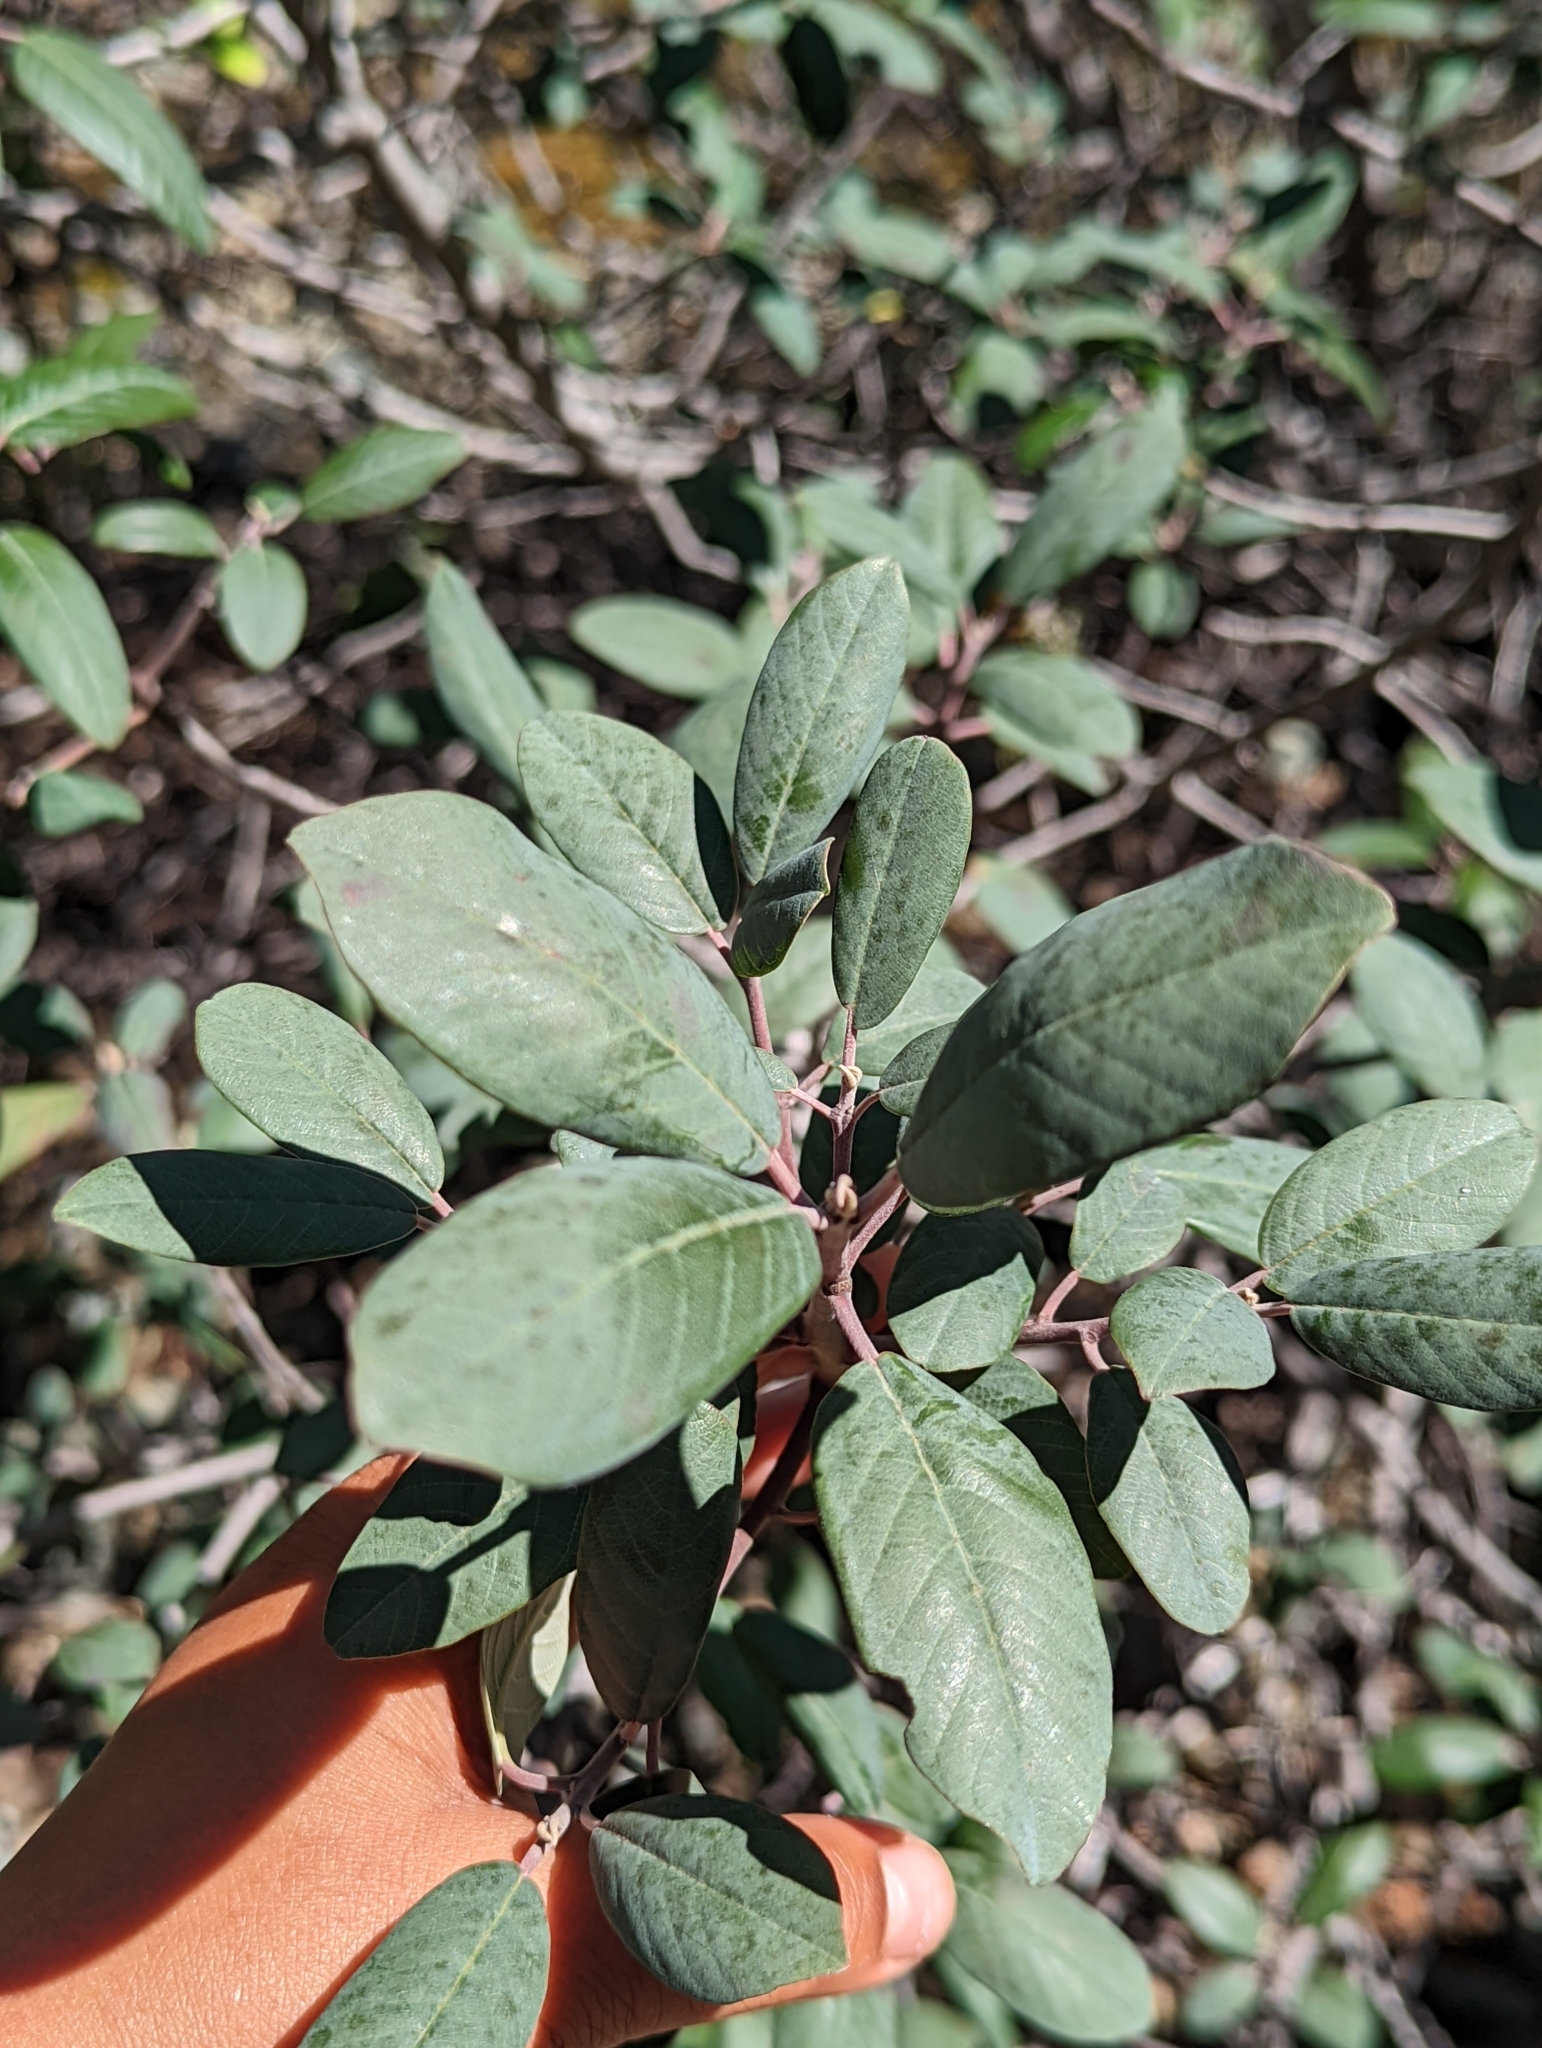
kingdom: Plantae
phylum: Tracheophyta
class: Magnoliopsida
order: Rosales
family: Rhamnaceae
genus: Frangula
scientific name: Frangula californica
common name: California buckthorn
